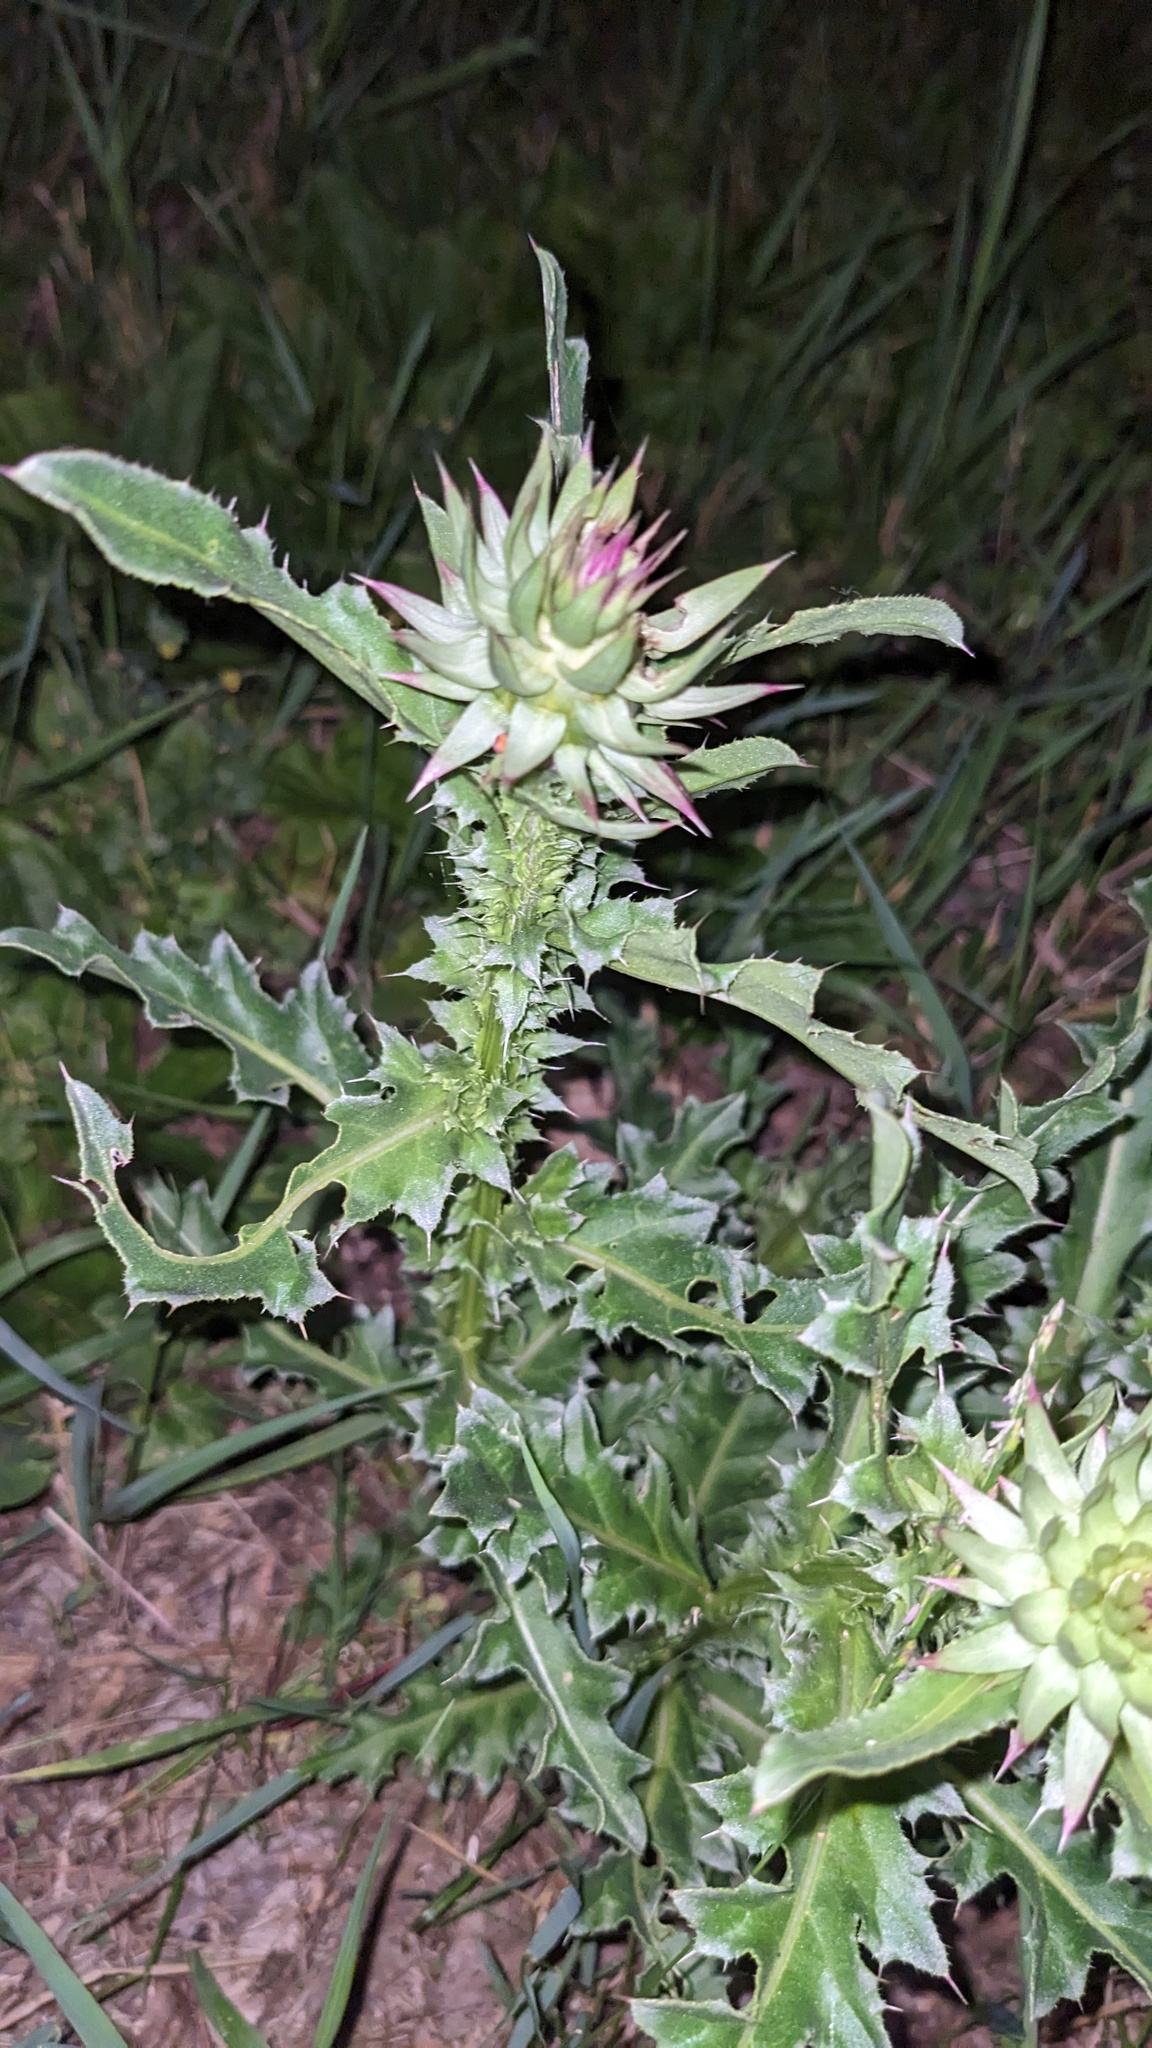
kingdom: Plantae
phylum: Tracheophyta
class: Magnoliopsida
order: Asterales
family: Asteraceae
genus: Carduus
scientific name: Carduus nutans
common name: Musk thistle
